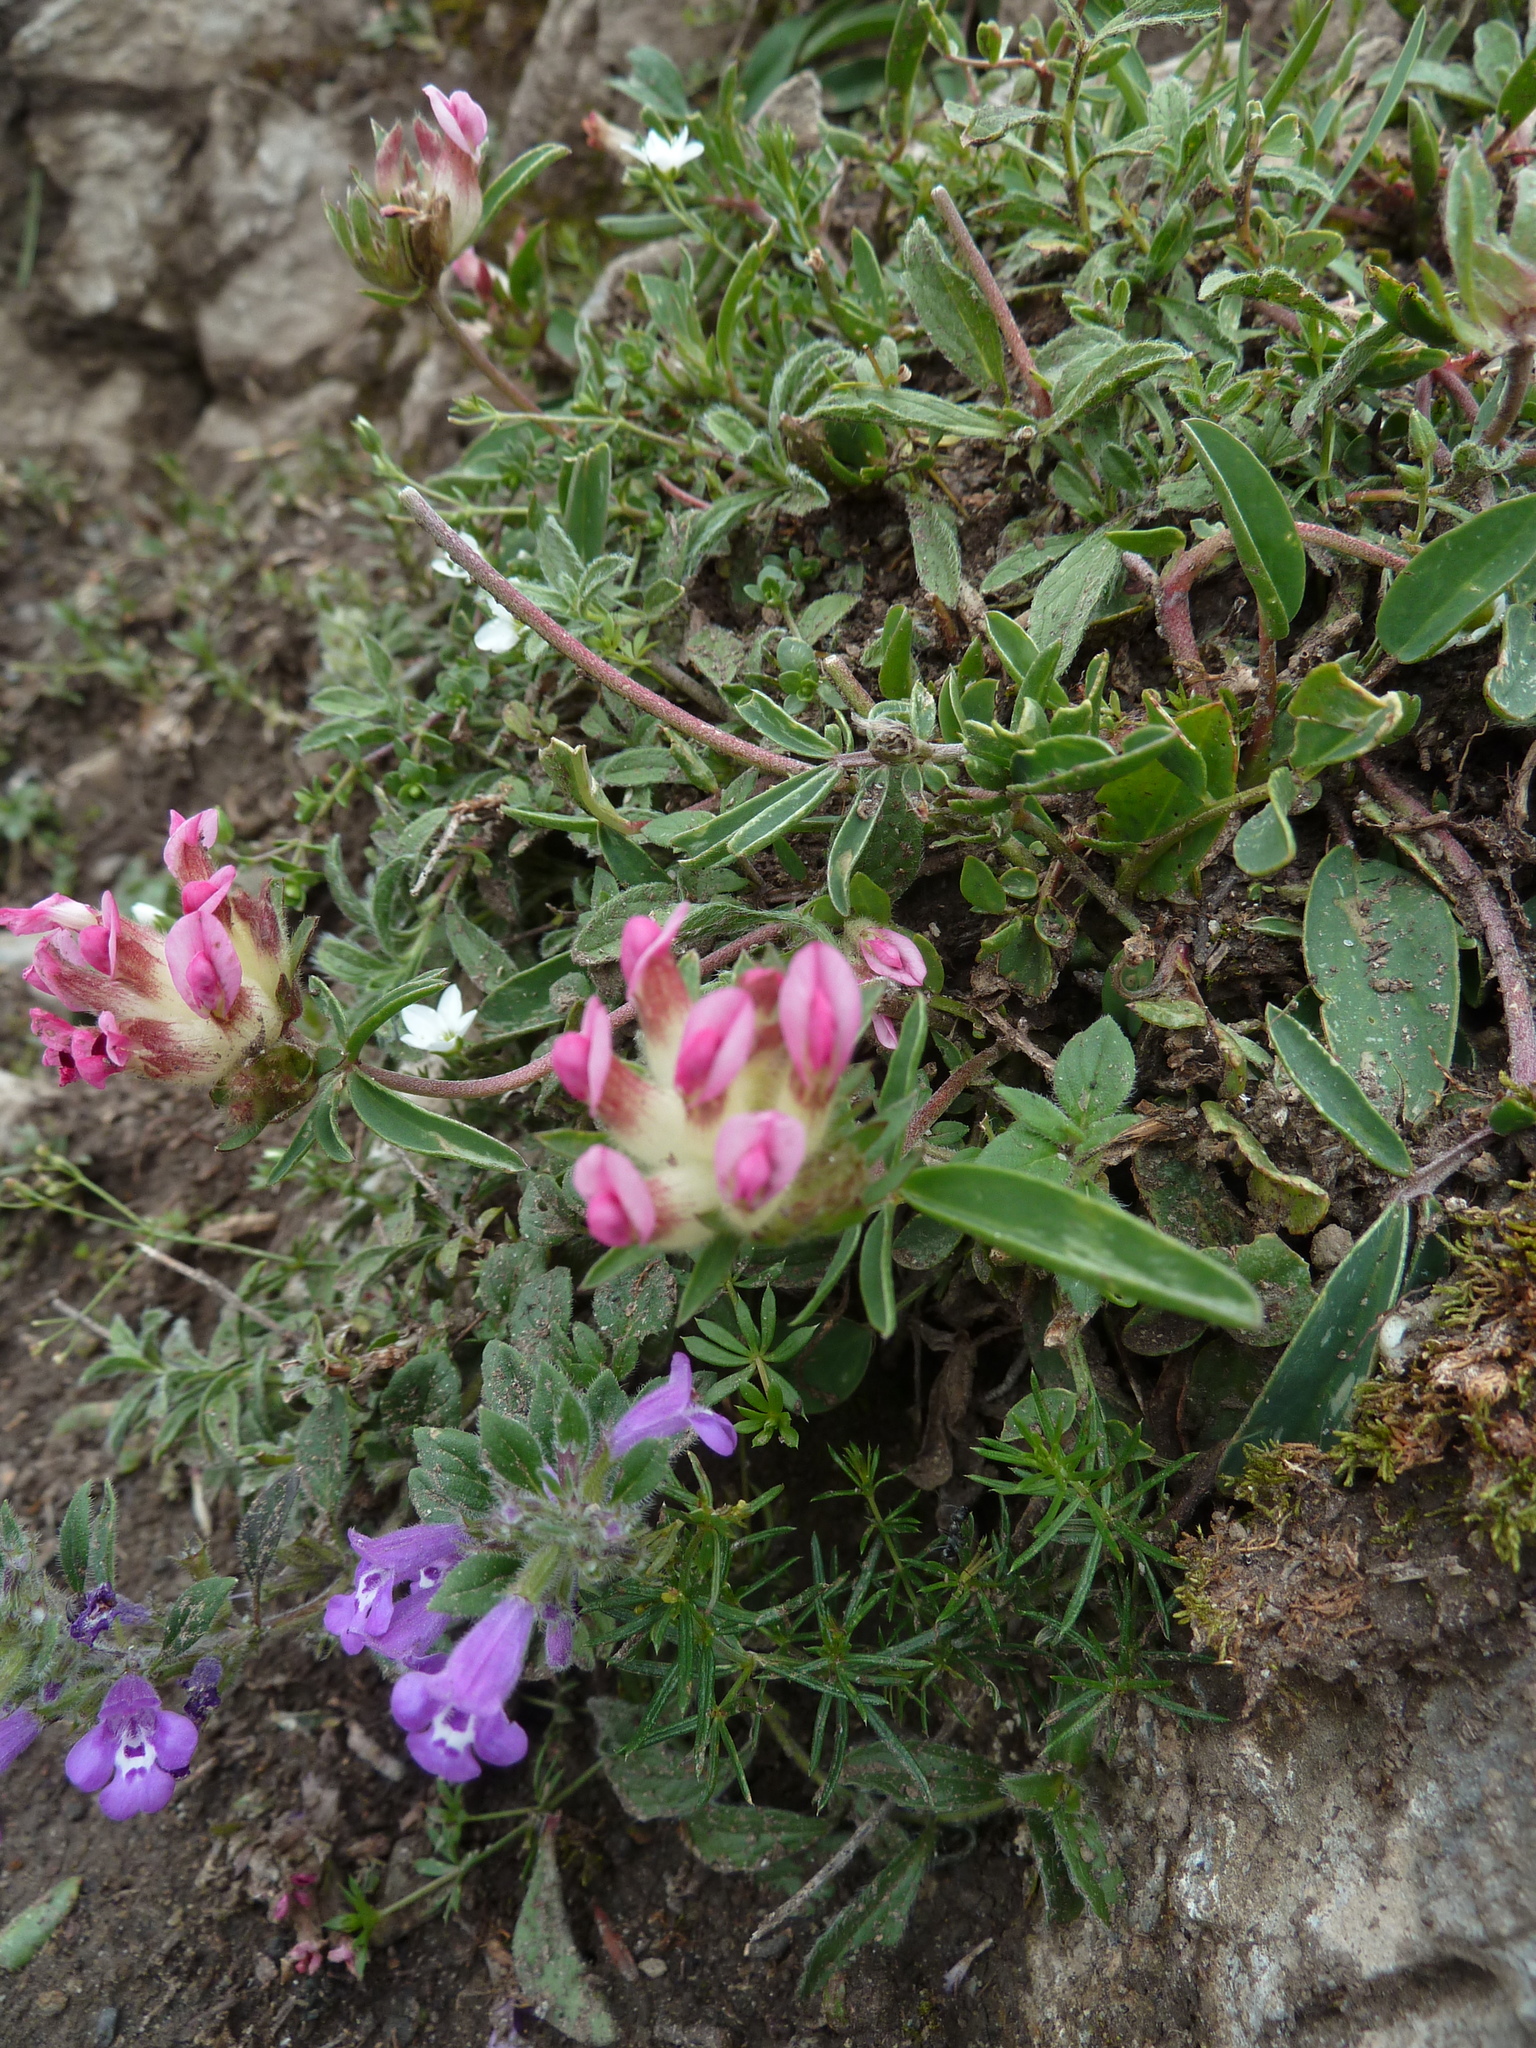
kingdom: Plantae
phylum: Tracheophyta
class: Magnoliopsida
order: Fabales
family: Fabaceae
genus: Anthyllis
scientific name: Anthyllis vulneraria
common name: Kidney vetch
